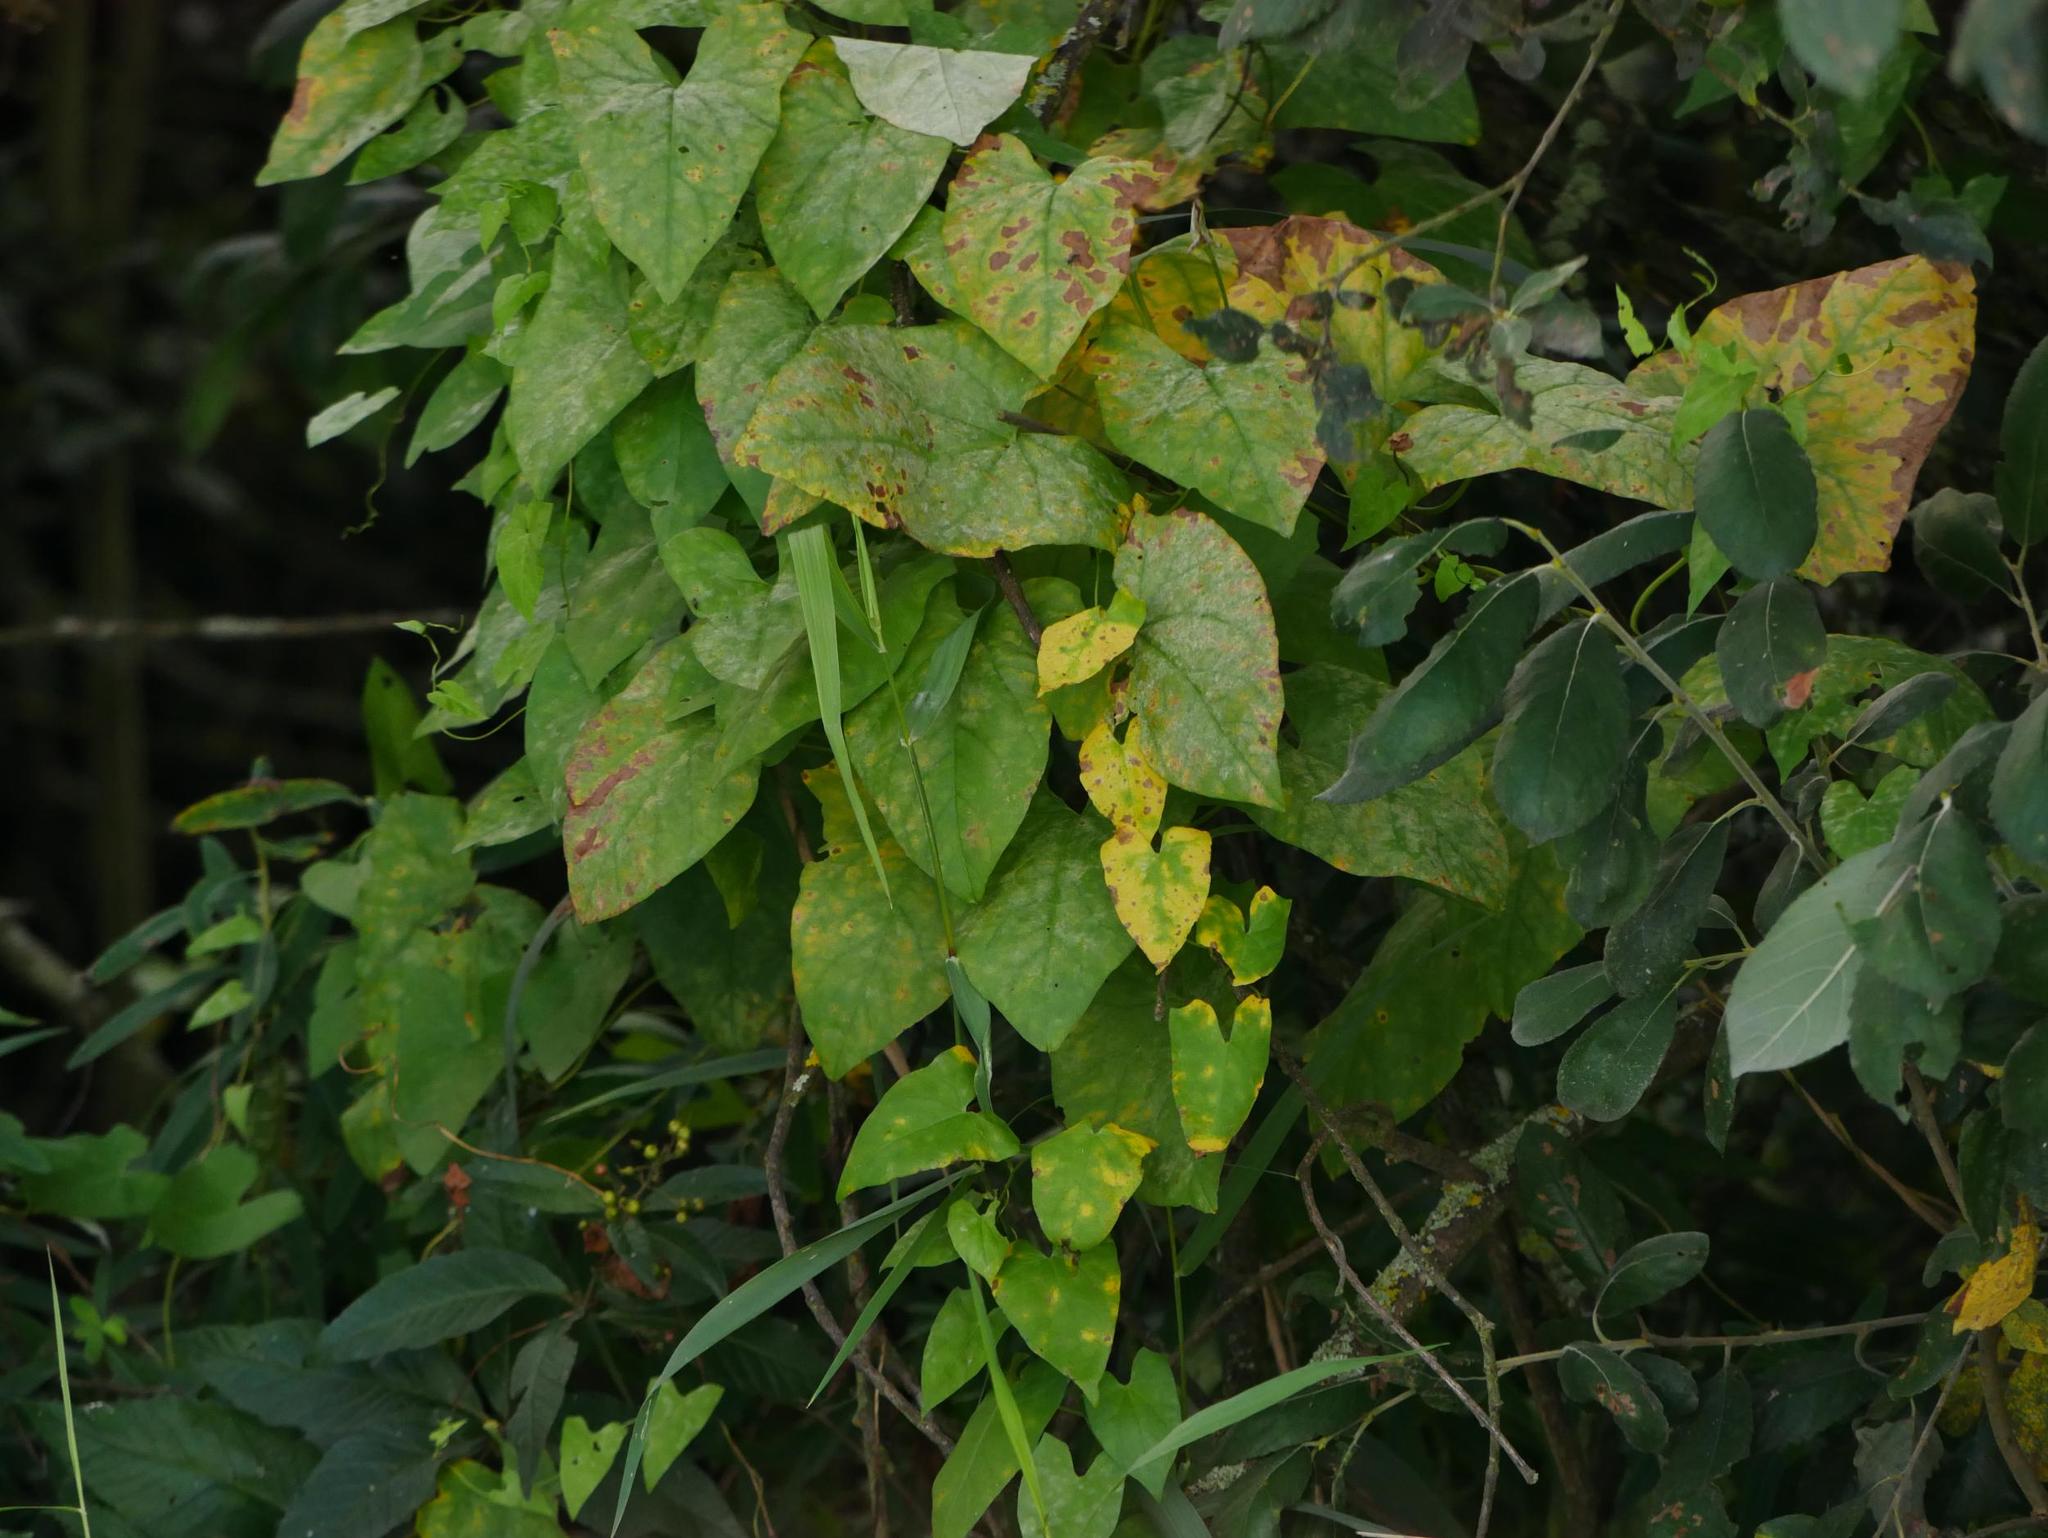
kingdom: Fungi
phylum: Ascomycota
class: Leotiomycetes
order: Helotiales
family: Erysiphaceae
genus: Erysiphe
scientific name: Erysiphe convolvuli
